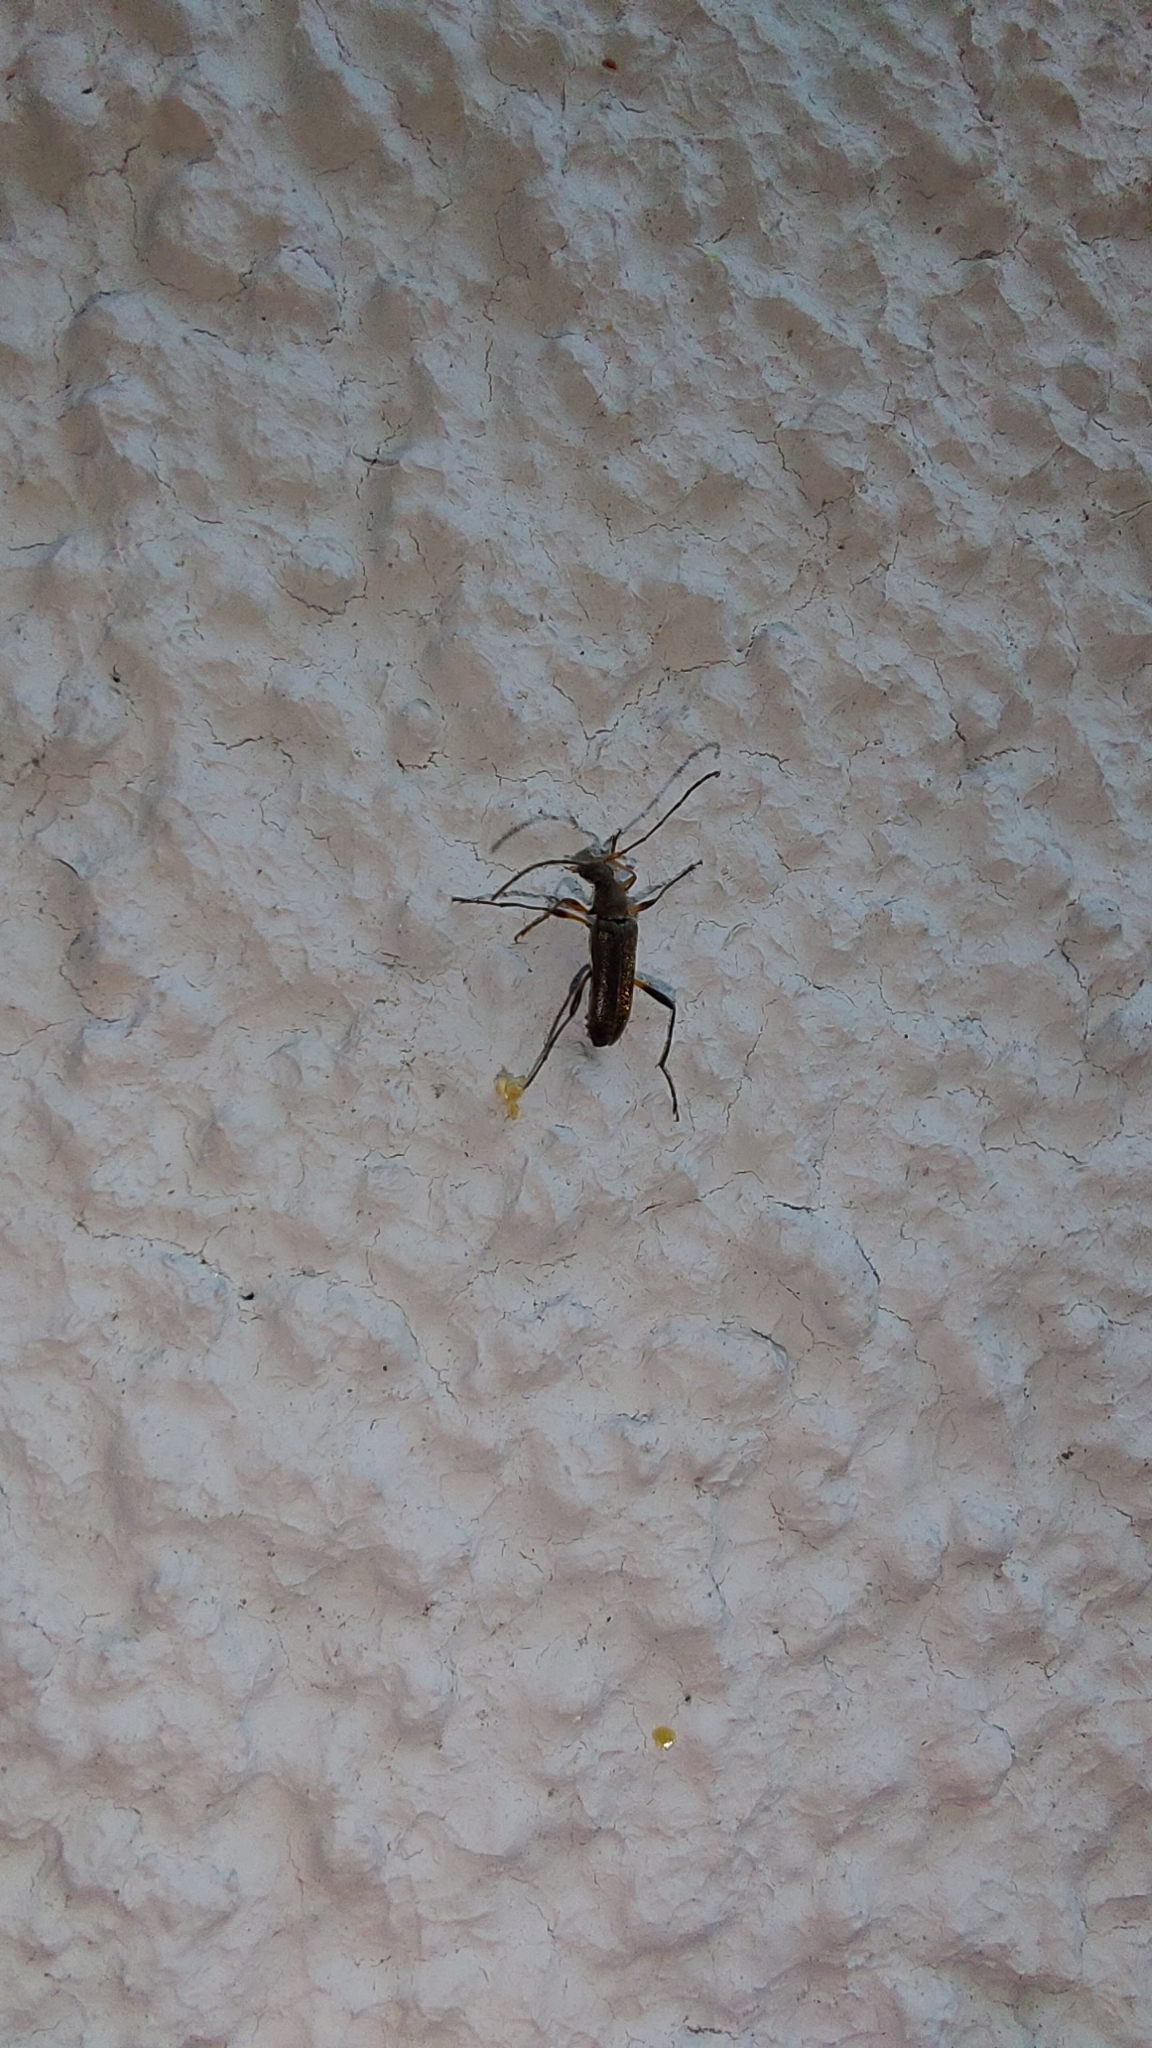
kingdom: Animalia
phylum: Arthropoda
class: Insecta
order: Coleoptera
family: Cerambycidae
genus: Grammoptera
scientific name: Grammoptera ruficornis
